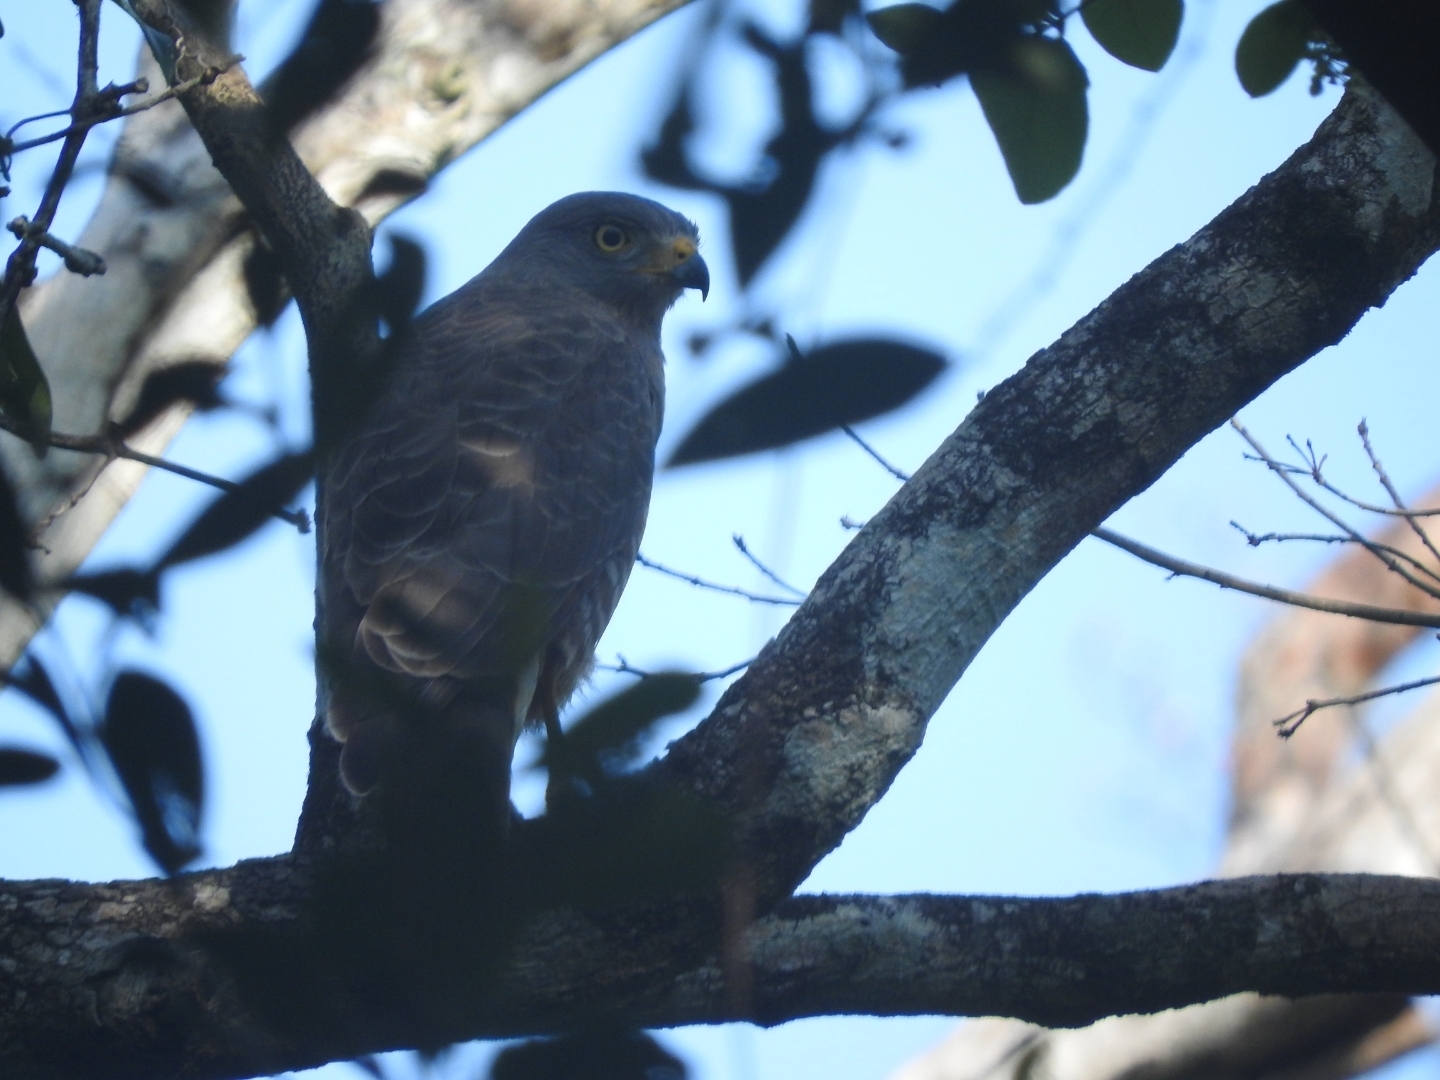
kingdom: Animalia
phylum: Chordata
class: Aves
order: Accipitriformes
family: Accipitridae
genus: Rupornis
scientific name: Rupornis magnirostris
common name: Roadside hawk
